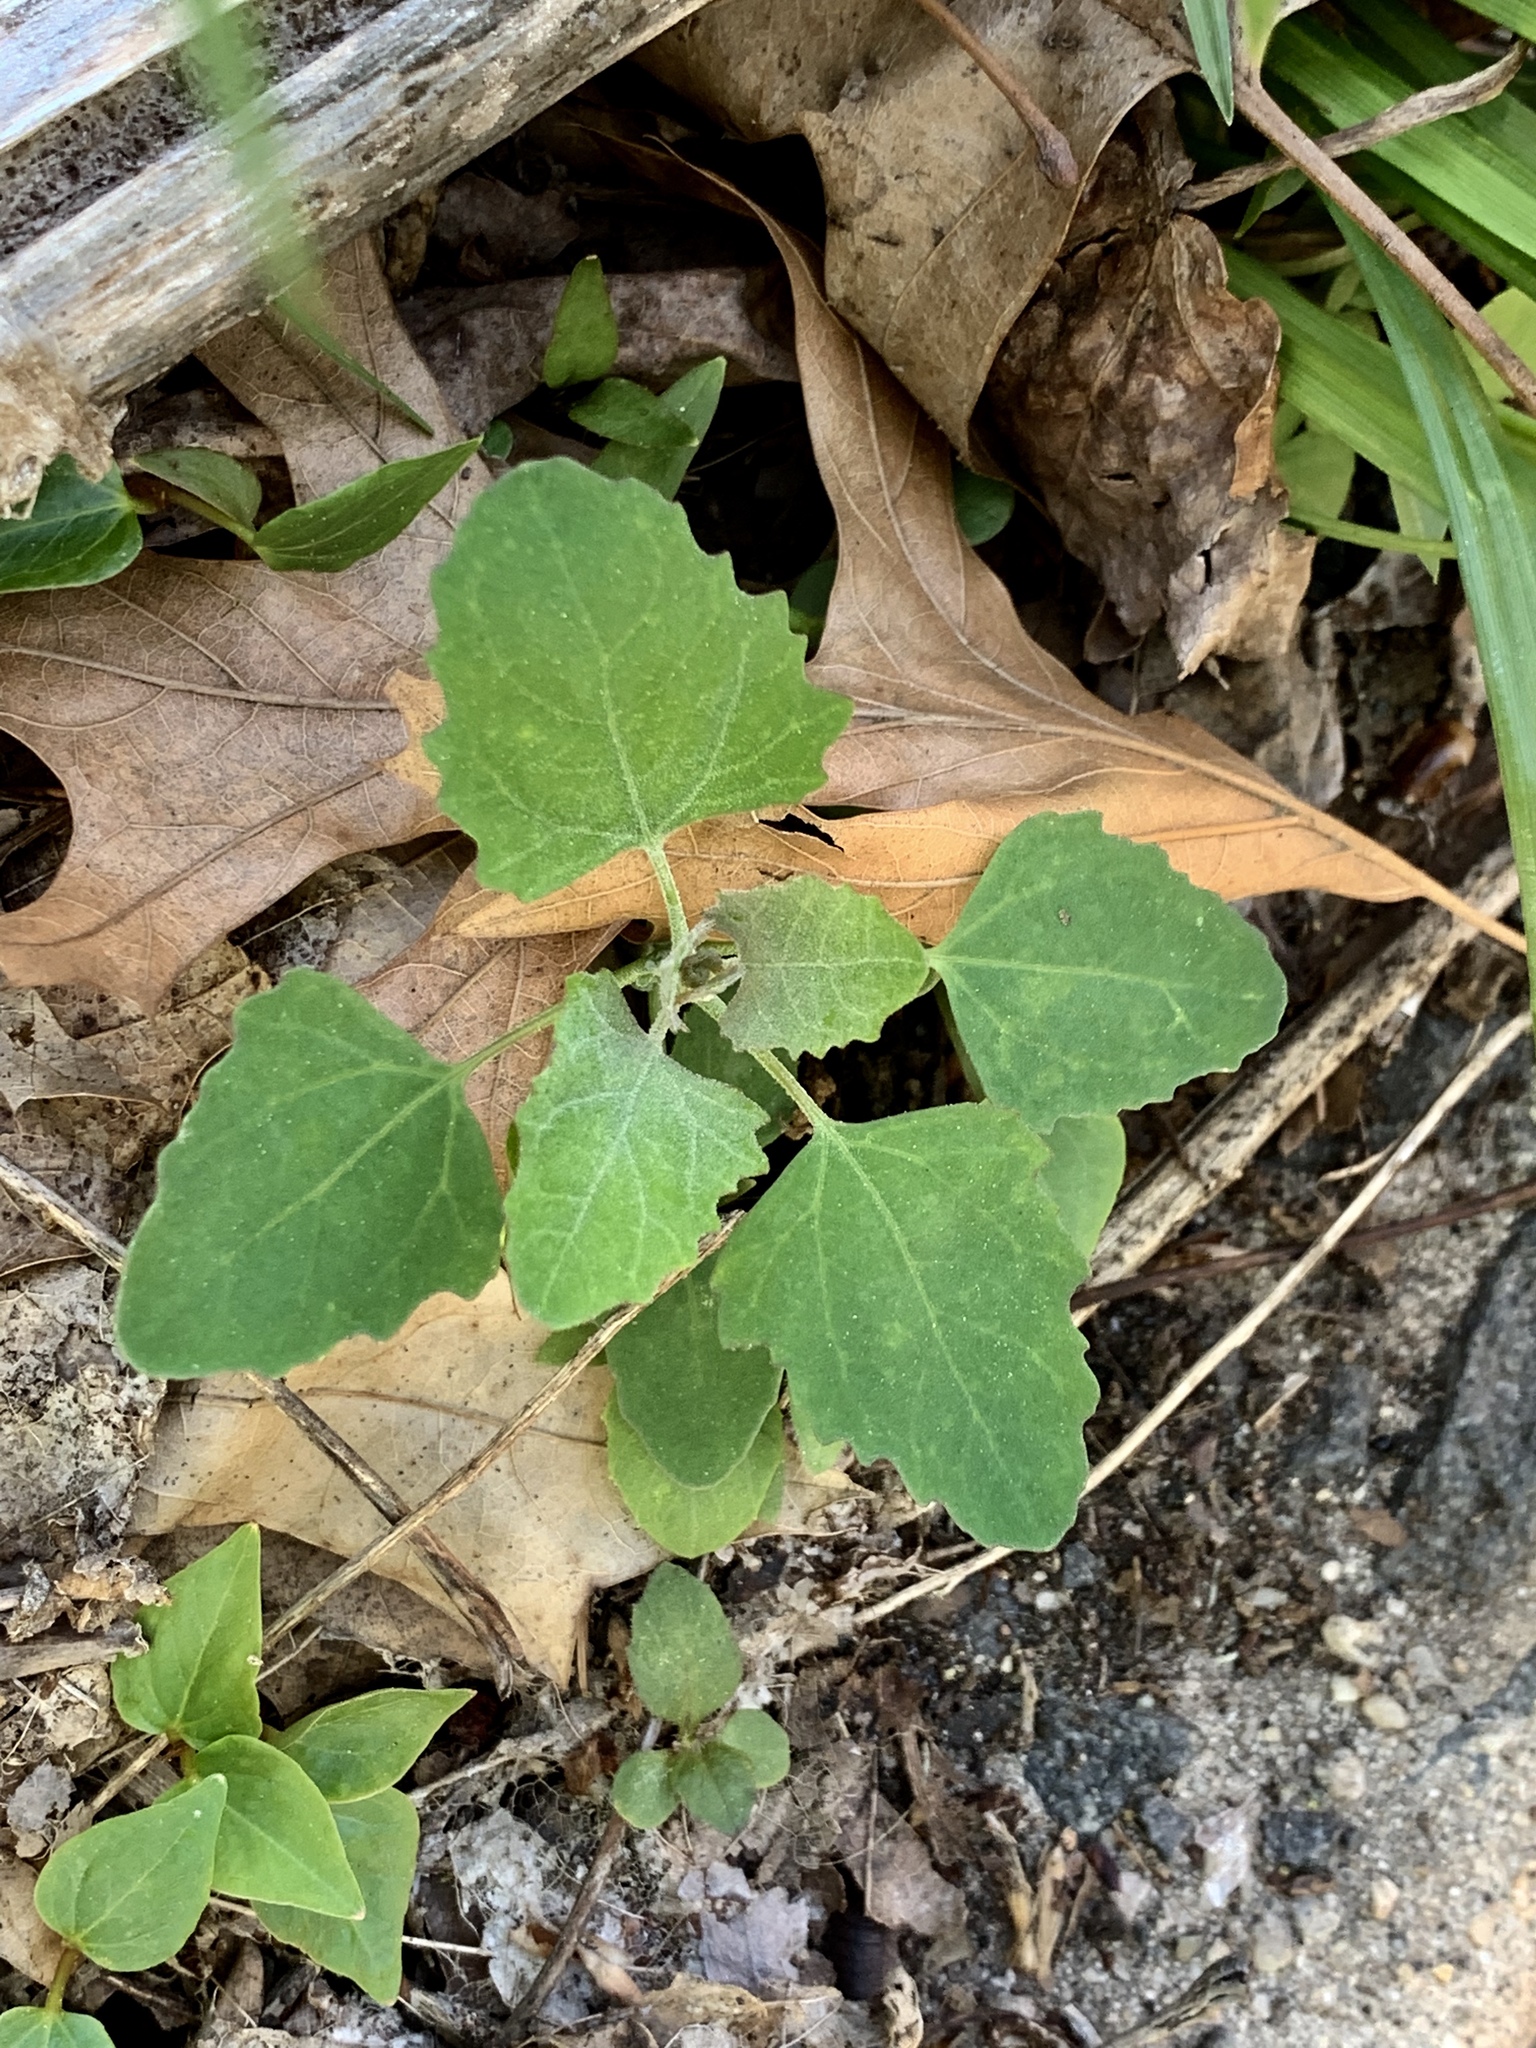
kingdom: Plantae
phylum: Tracheophyta
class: Magnoliopsida
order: Caryophyllales
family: Amaranthaceae
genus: Chenopodium
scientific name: Chenopodium album
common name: Fat-hen
